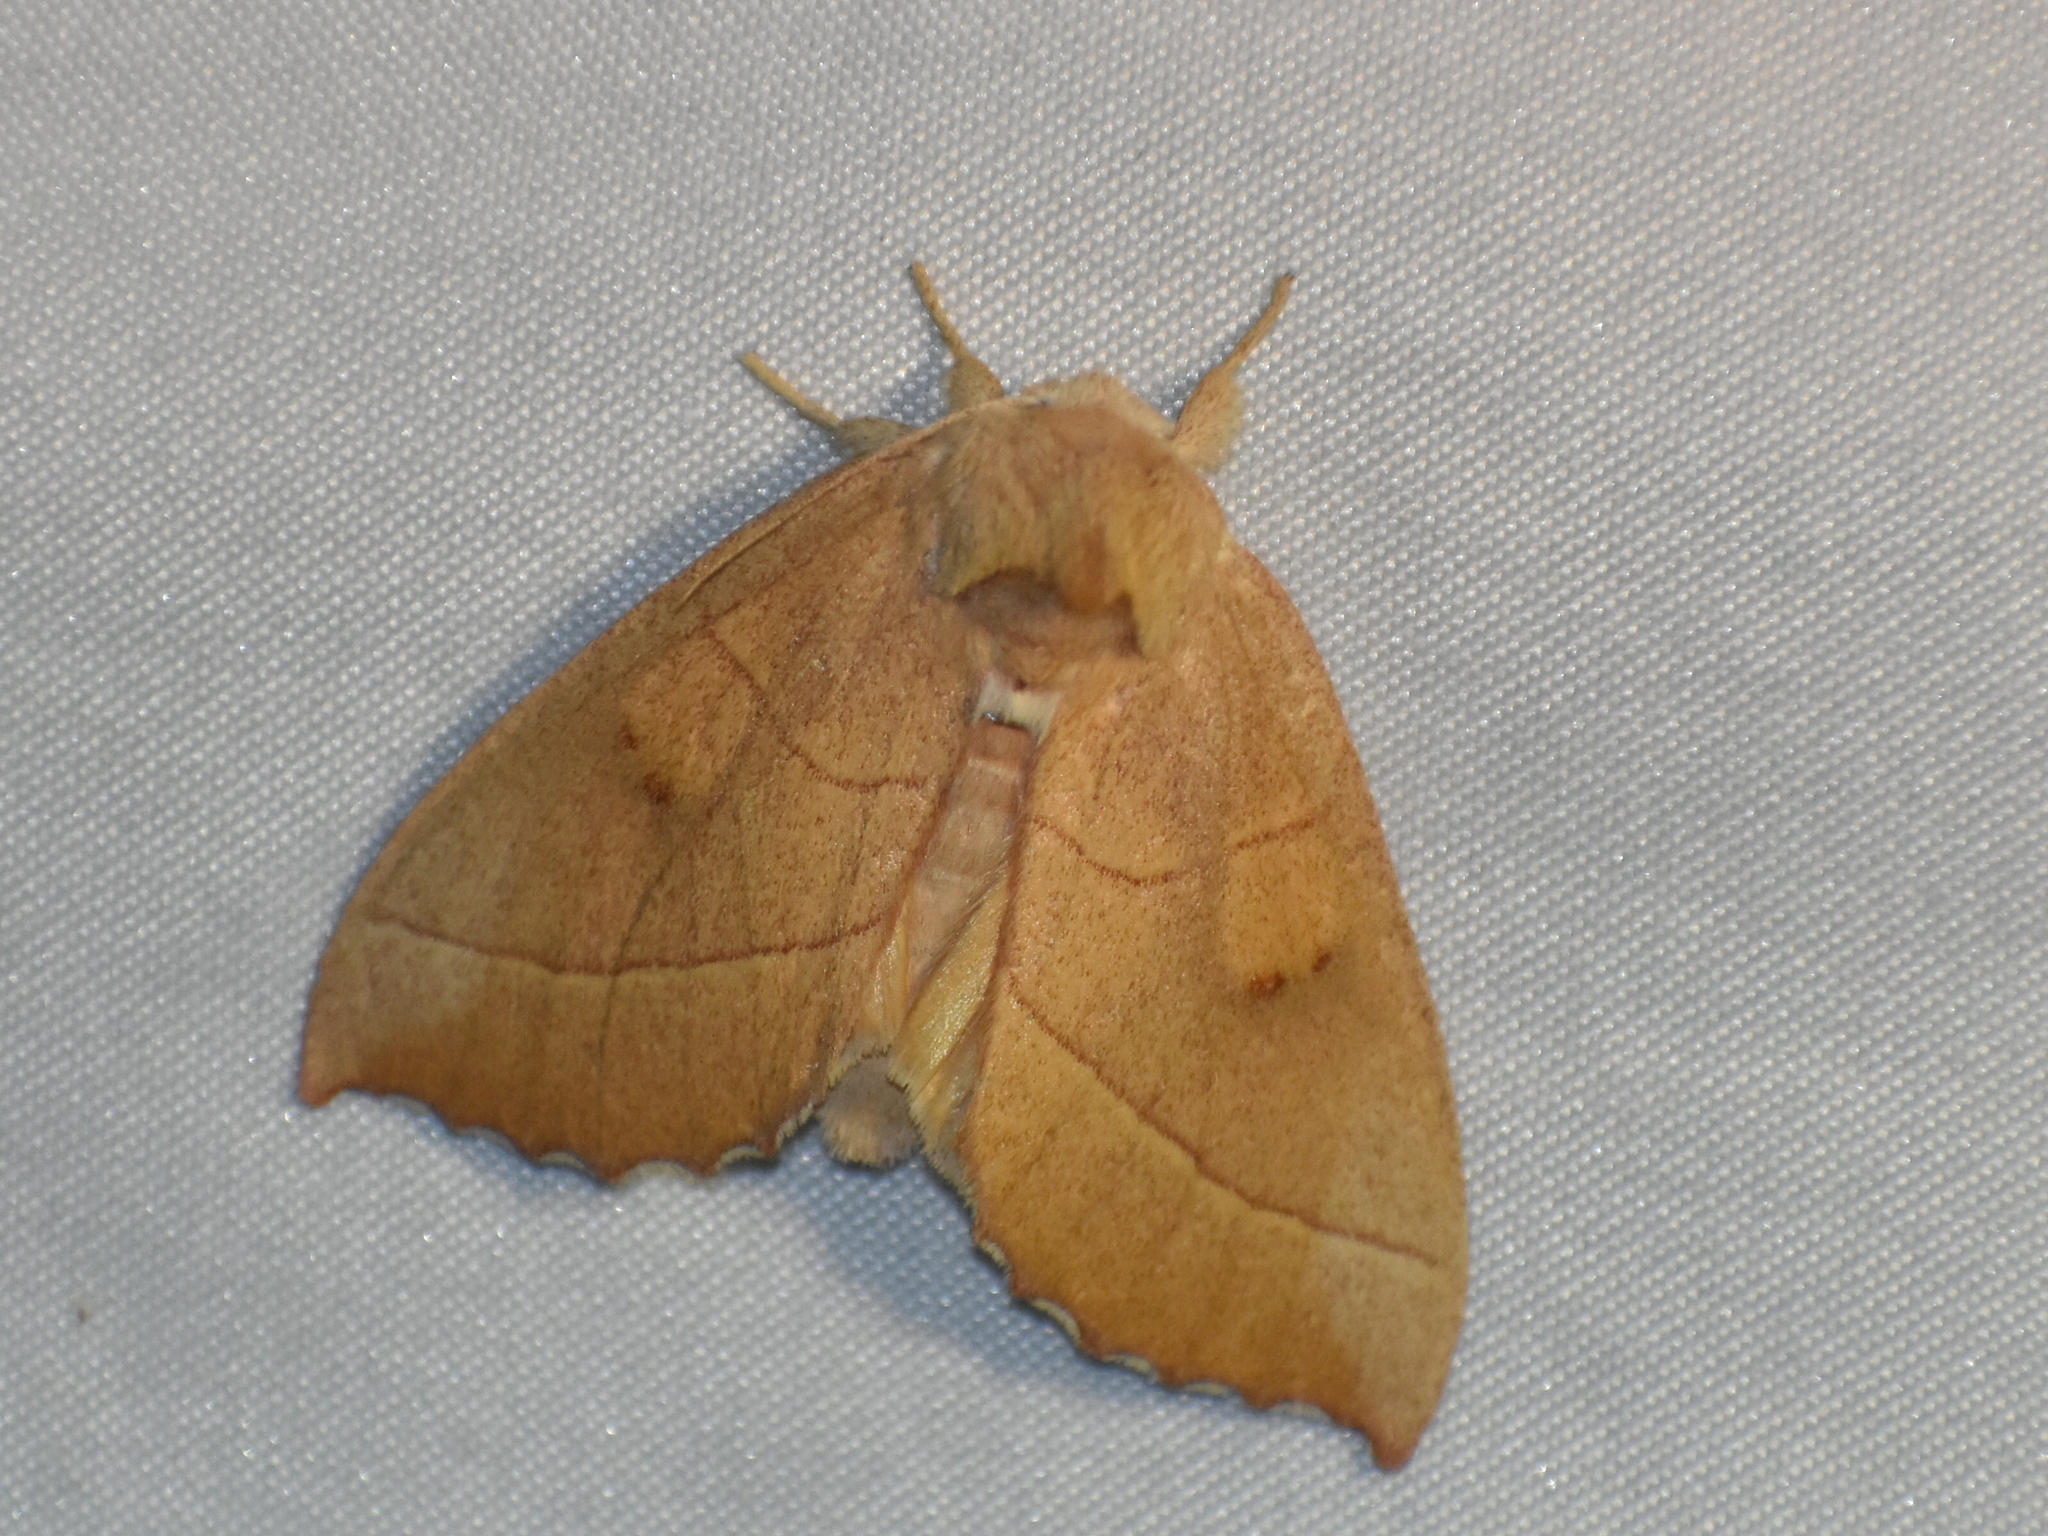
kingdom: Animalia
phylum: Arthropoda
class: Insecta
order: Lepidoptera
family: Notodontidae
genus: Nadata
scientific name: Nadata gibbosa
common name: White-dotted prominent
